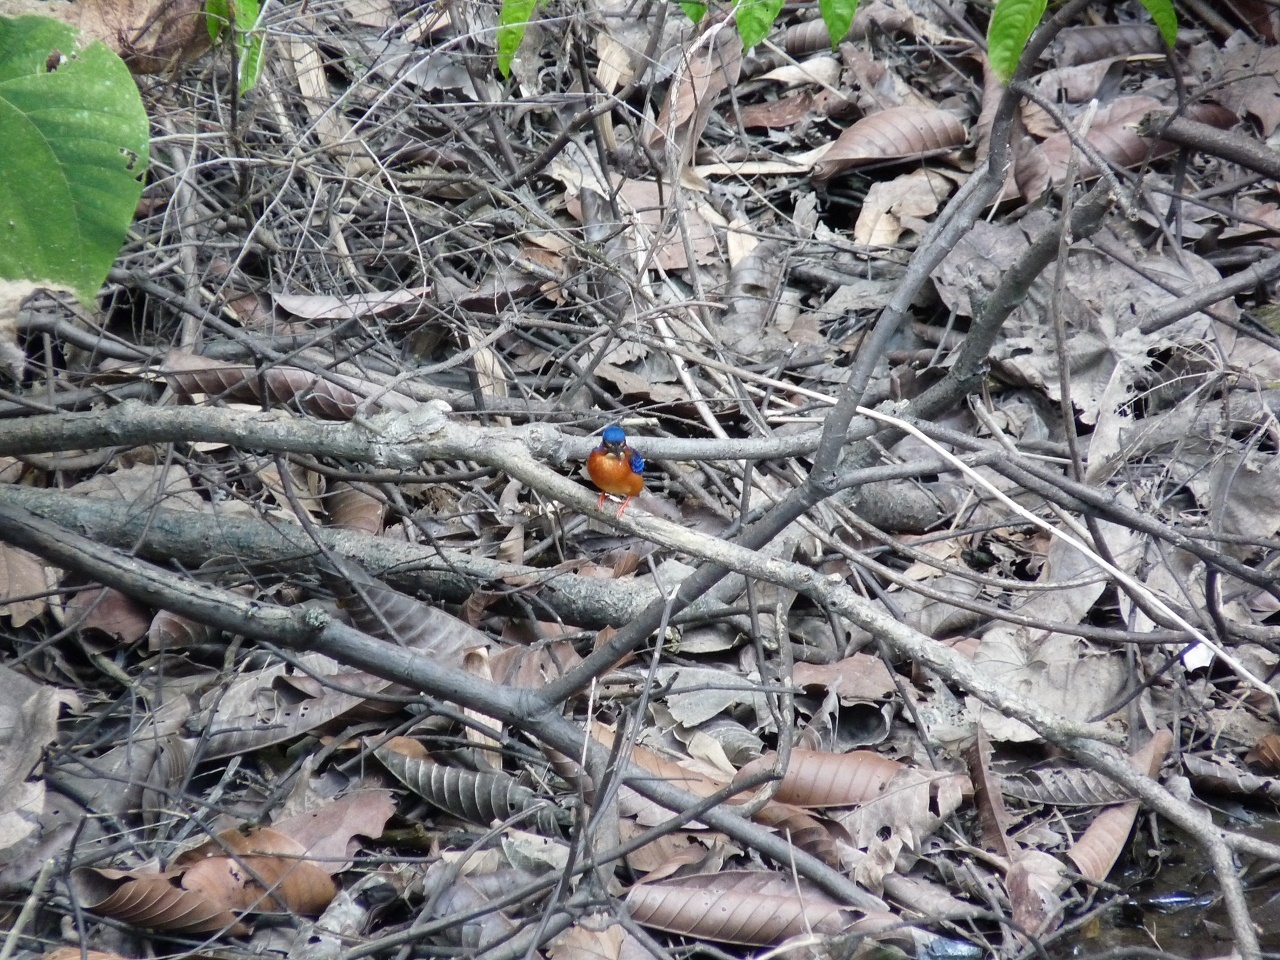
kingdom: Animalia
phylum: Chordata
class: Aves
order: Coraciiformes
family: Alcedinidae
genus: Alcedo
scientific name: Alcedo meninting
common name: Blue-eared kingfisher
